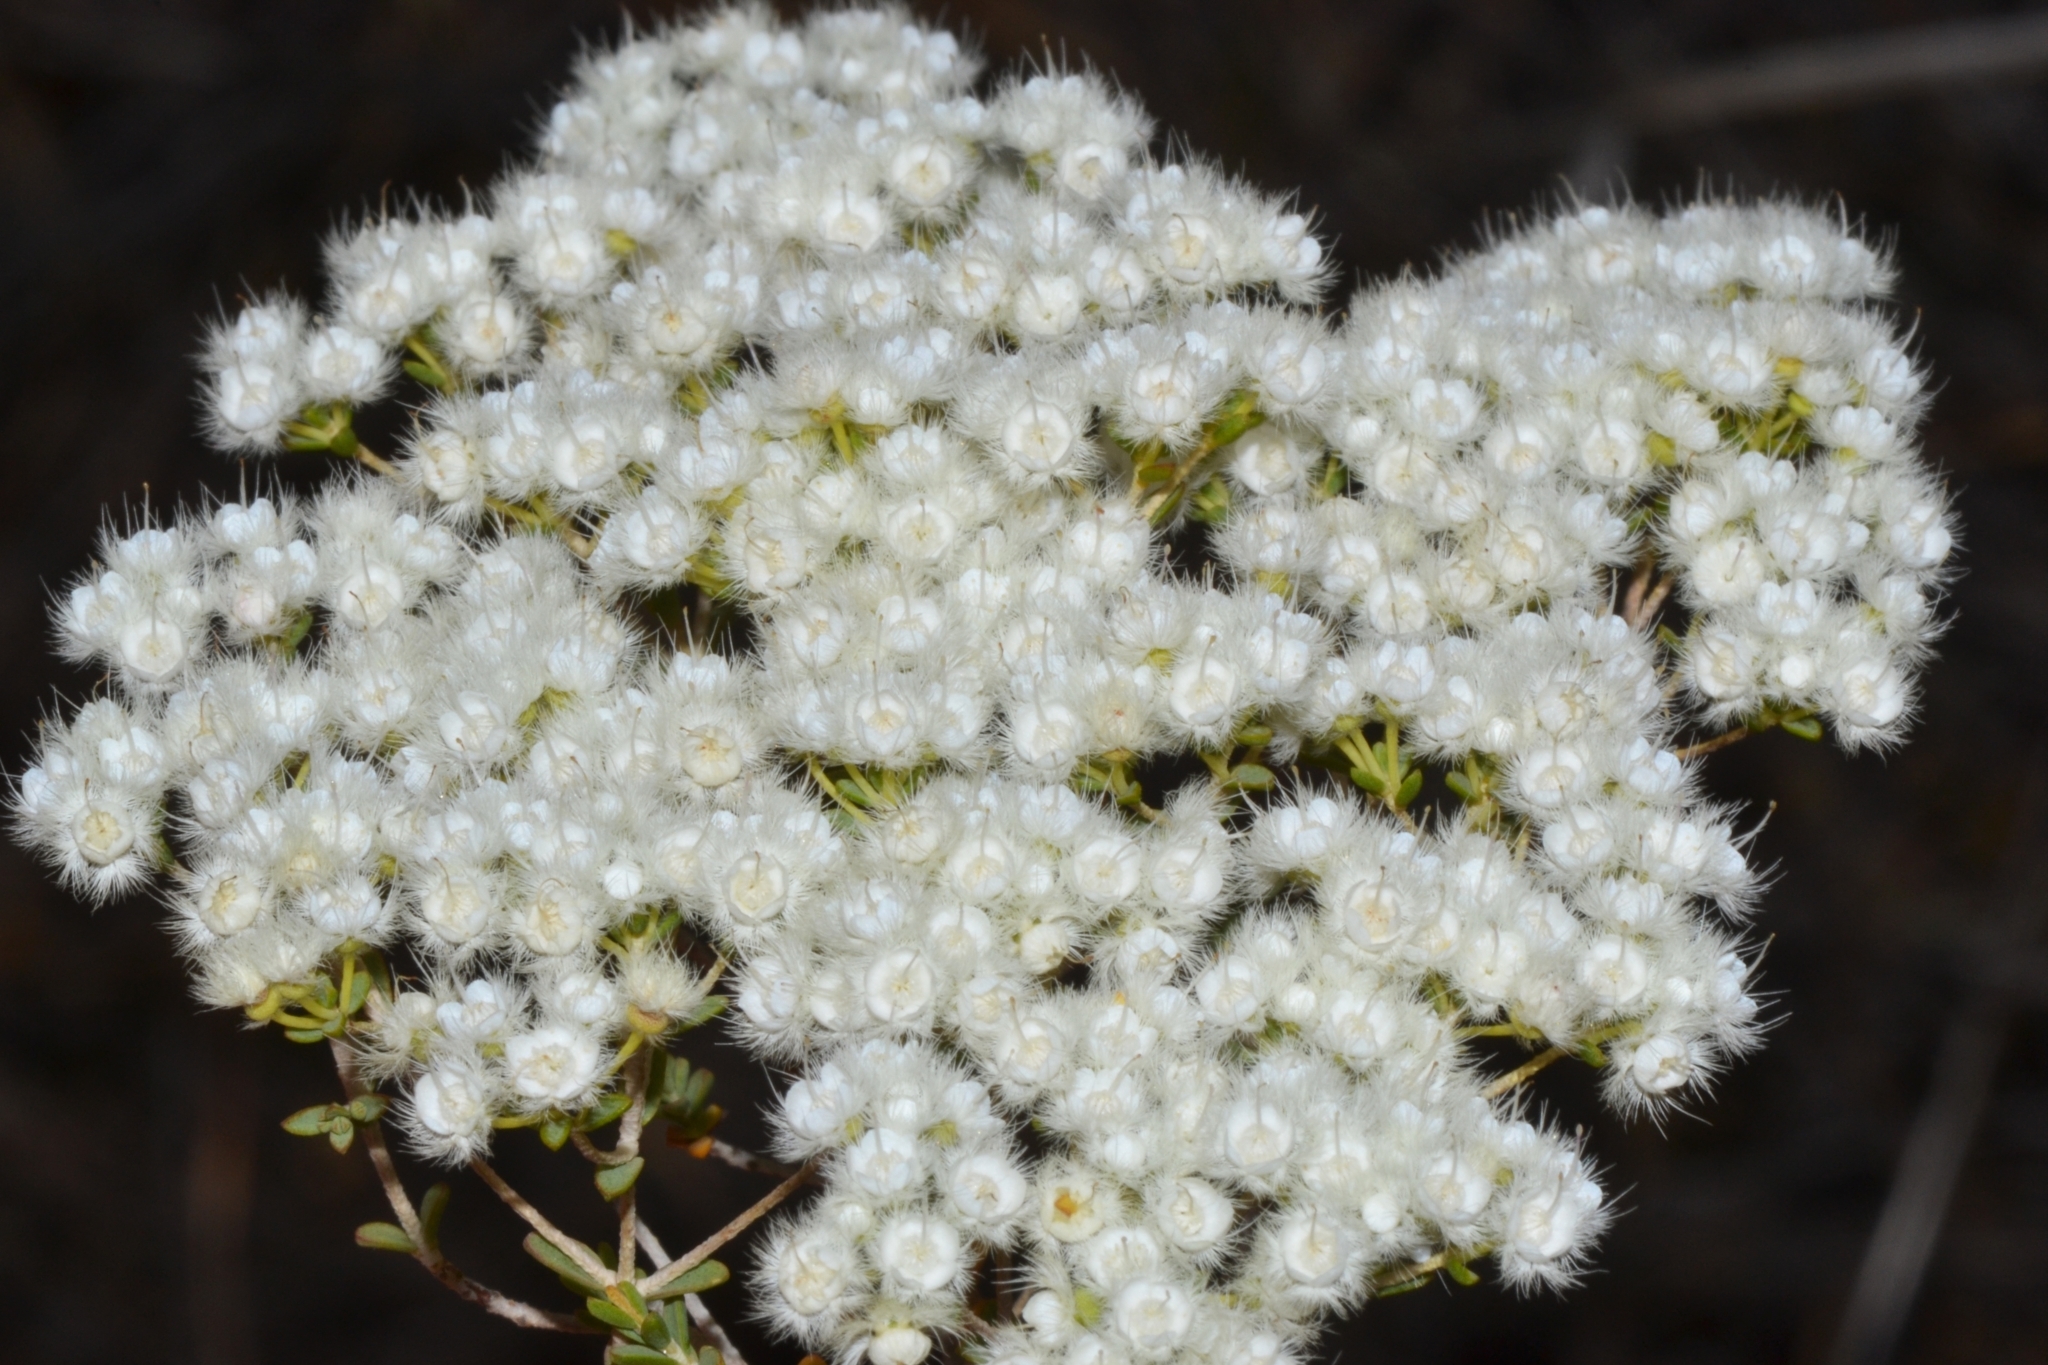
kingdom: Plantae
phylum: Tracheophyta
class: Magnoliopsida
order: Myrtales
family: Myrtaceae
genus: Verticordia
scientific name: Verticordia eriocephala
